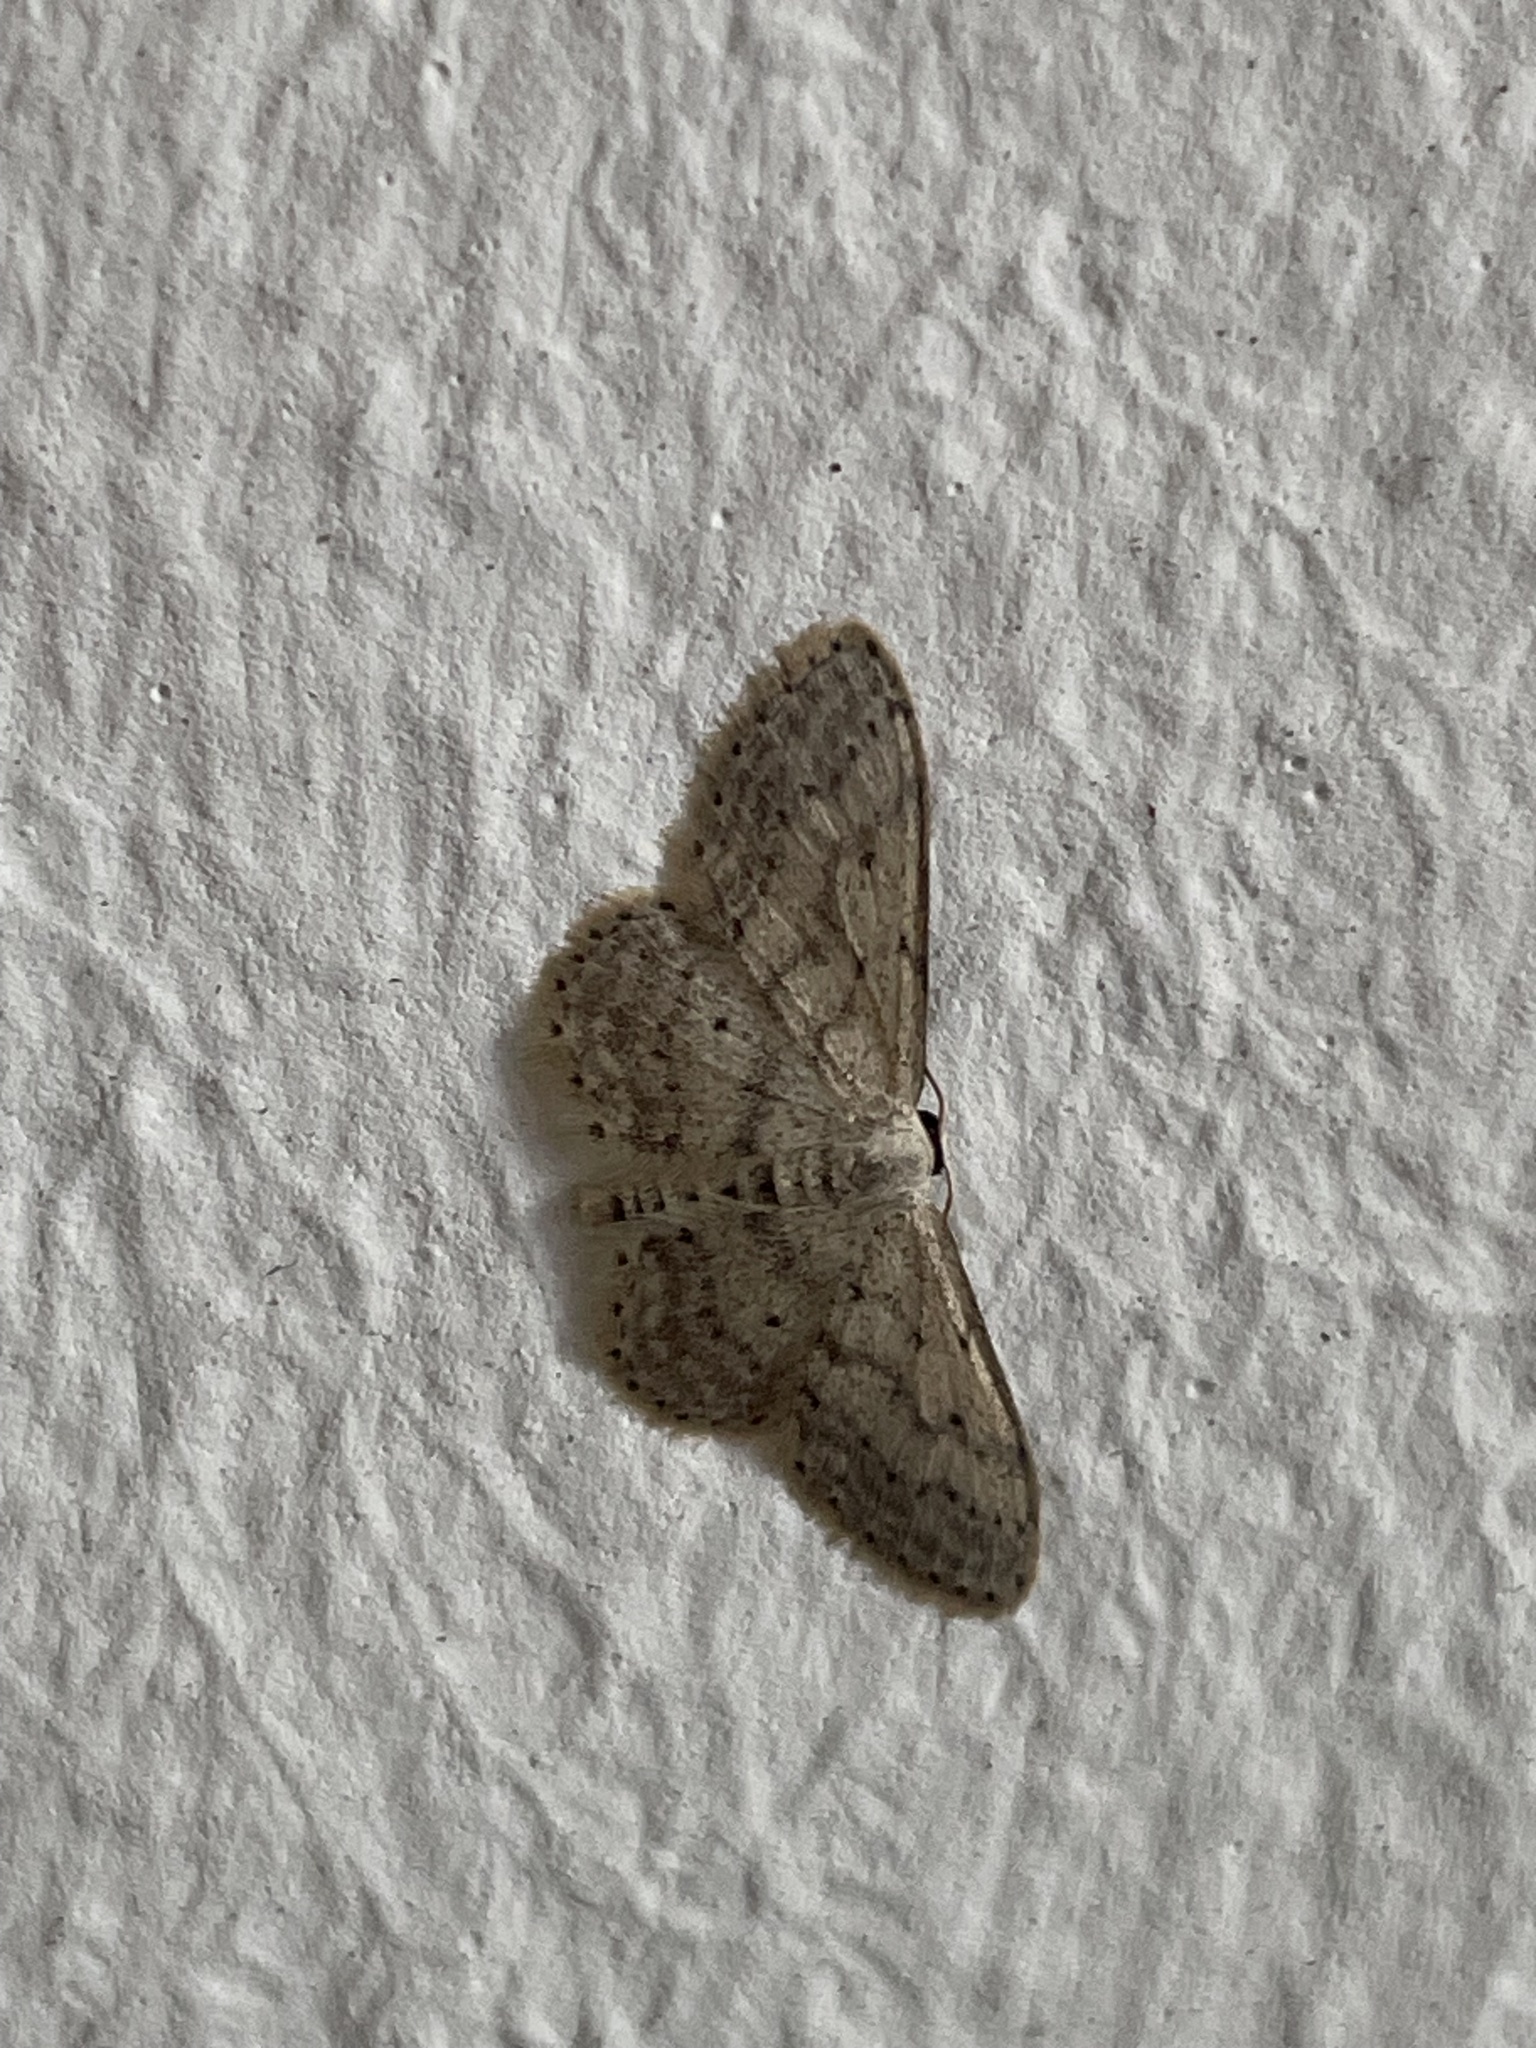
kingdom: Animalia
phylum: Arthropoda
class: Insecta
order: Lepidoptera
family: Geometridae
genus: Idaea
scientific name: Idaea seriata
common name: Small dusty wave
